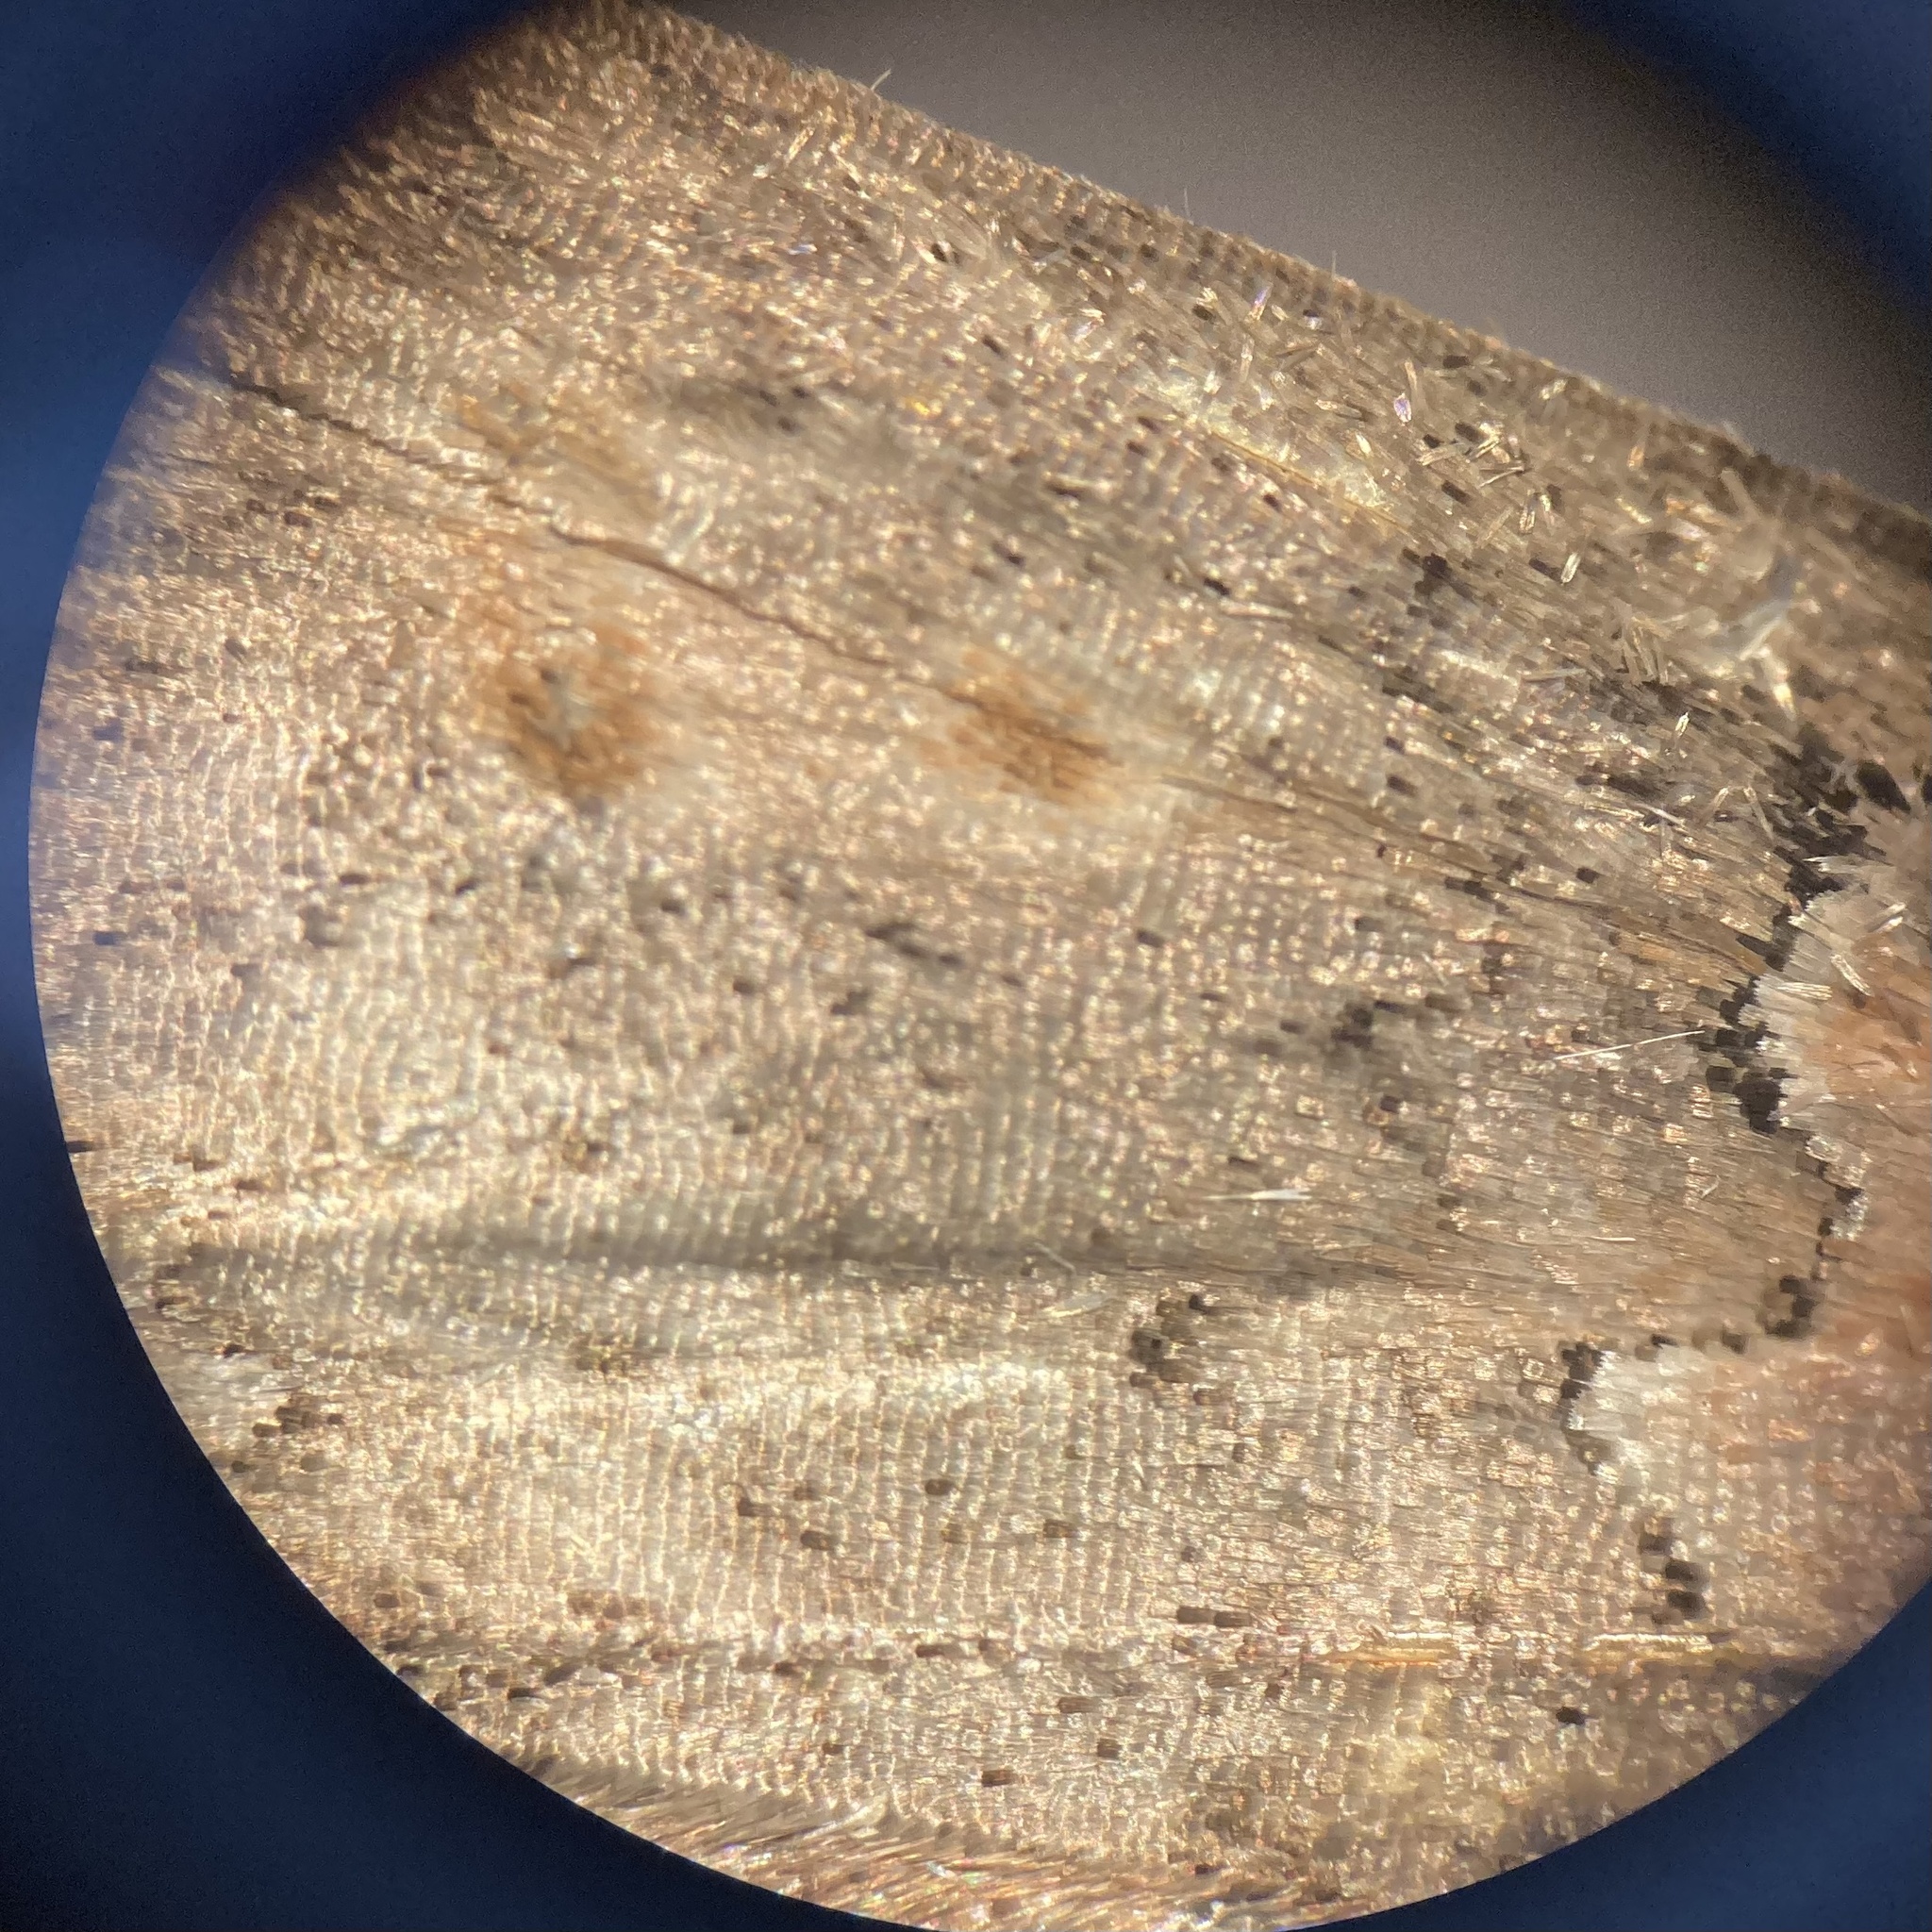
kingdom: Animalia
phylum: Arthropoda
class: Insecta
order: Lepidoptera
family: Drepanidae
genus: Pseudothyatira
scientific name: Pseudothyatira cymatophoroides
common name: Tufted thyatirid moth
